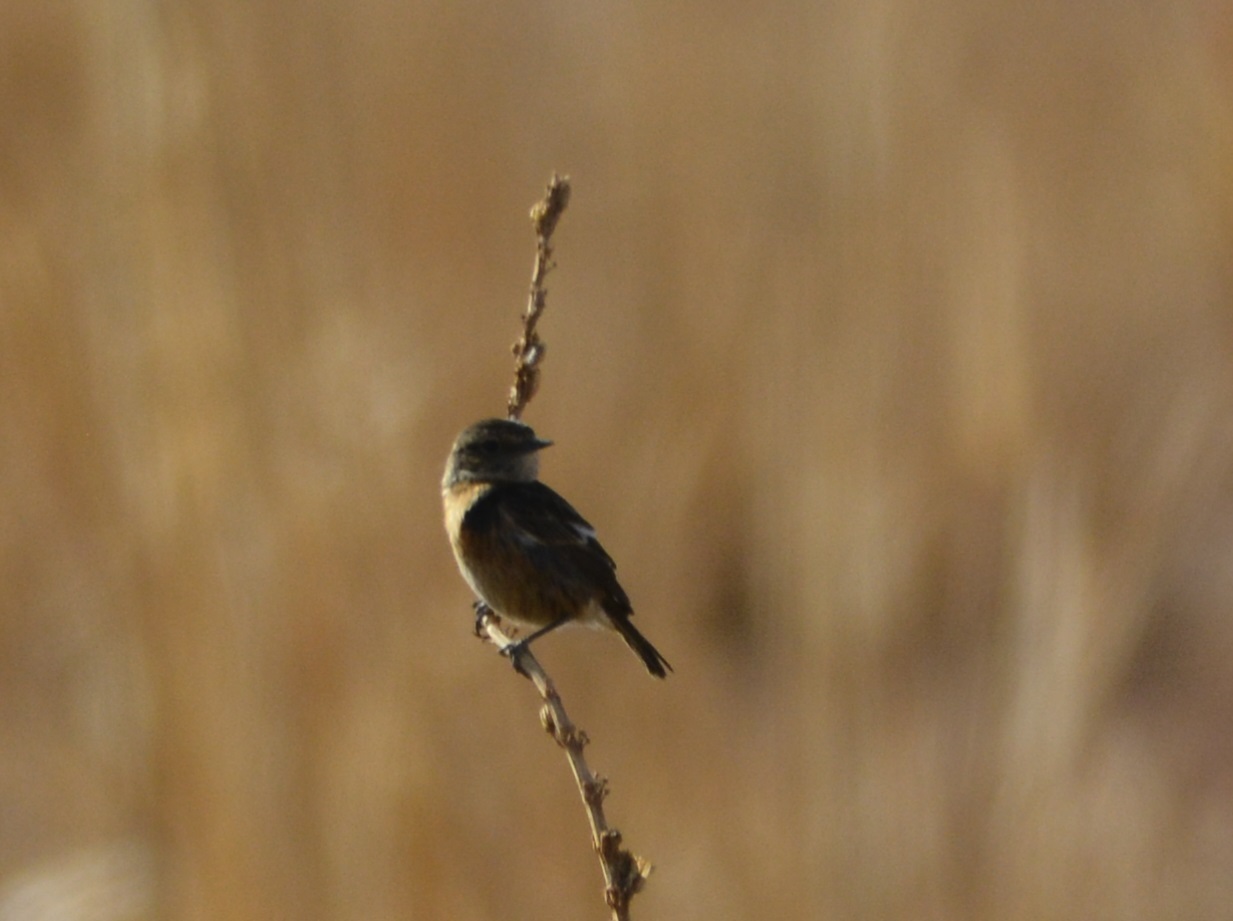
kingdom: Animalia
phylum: Chordata
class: Aves
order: Passeriformes
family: Muscicapidae
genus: Saxicola
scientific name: Saxicola rubicola
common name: European stonechat
